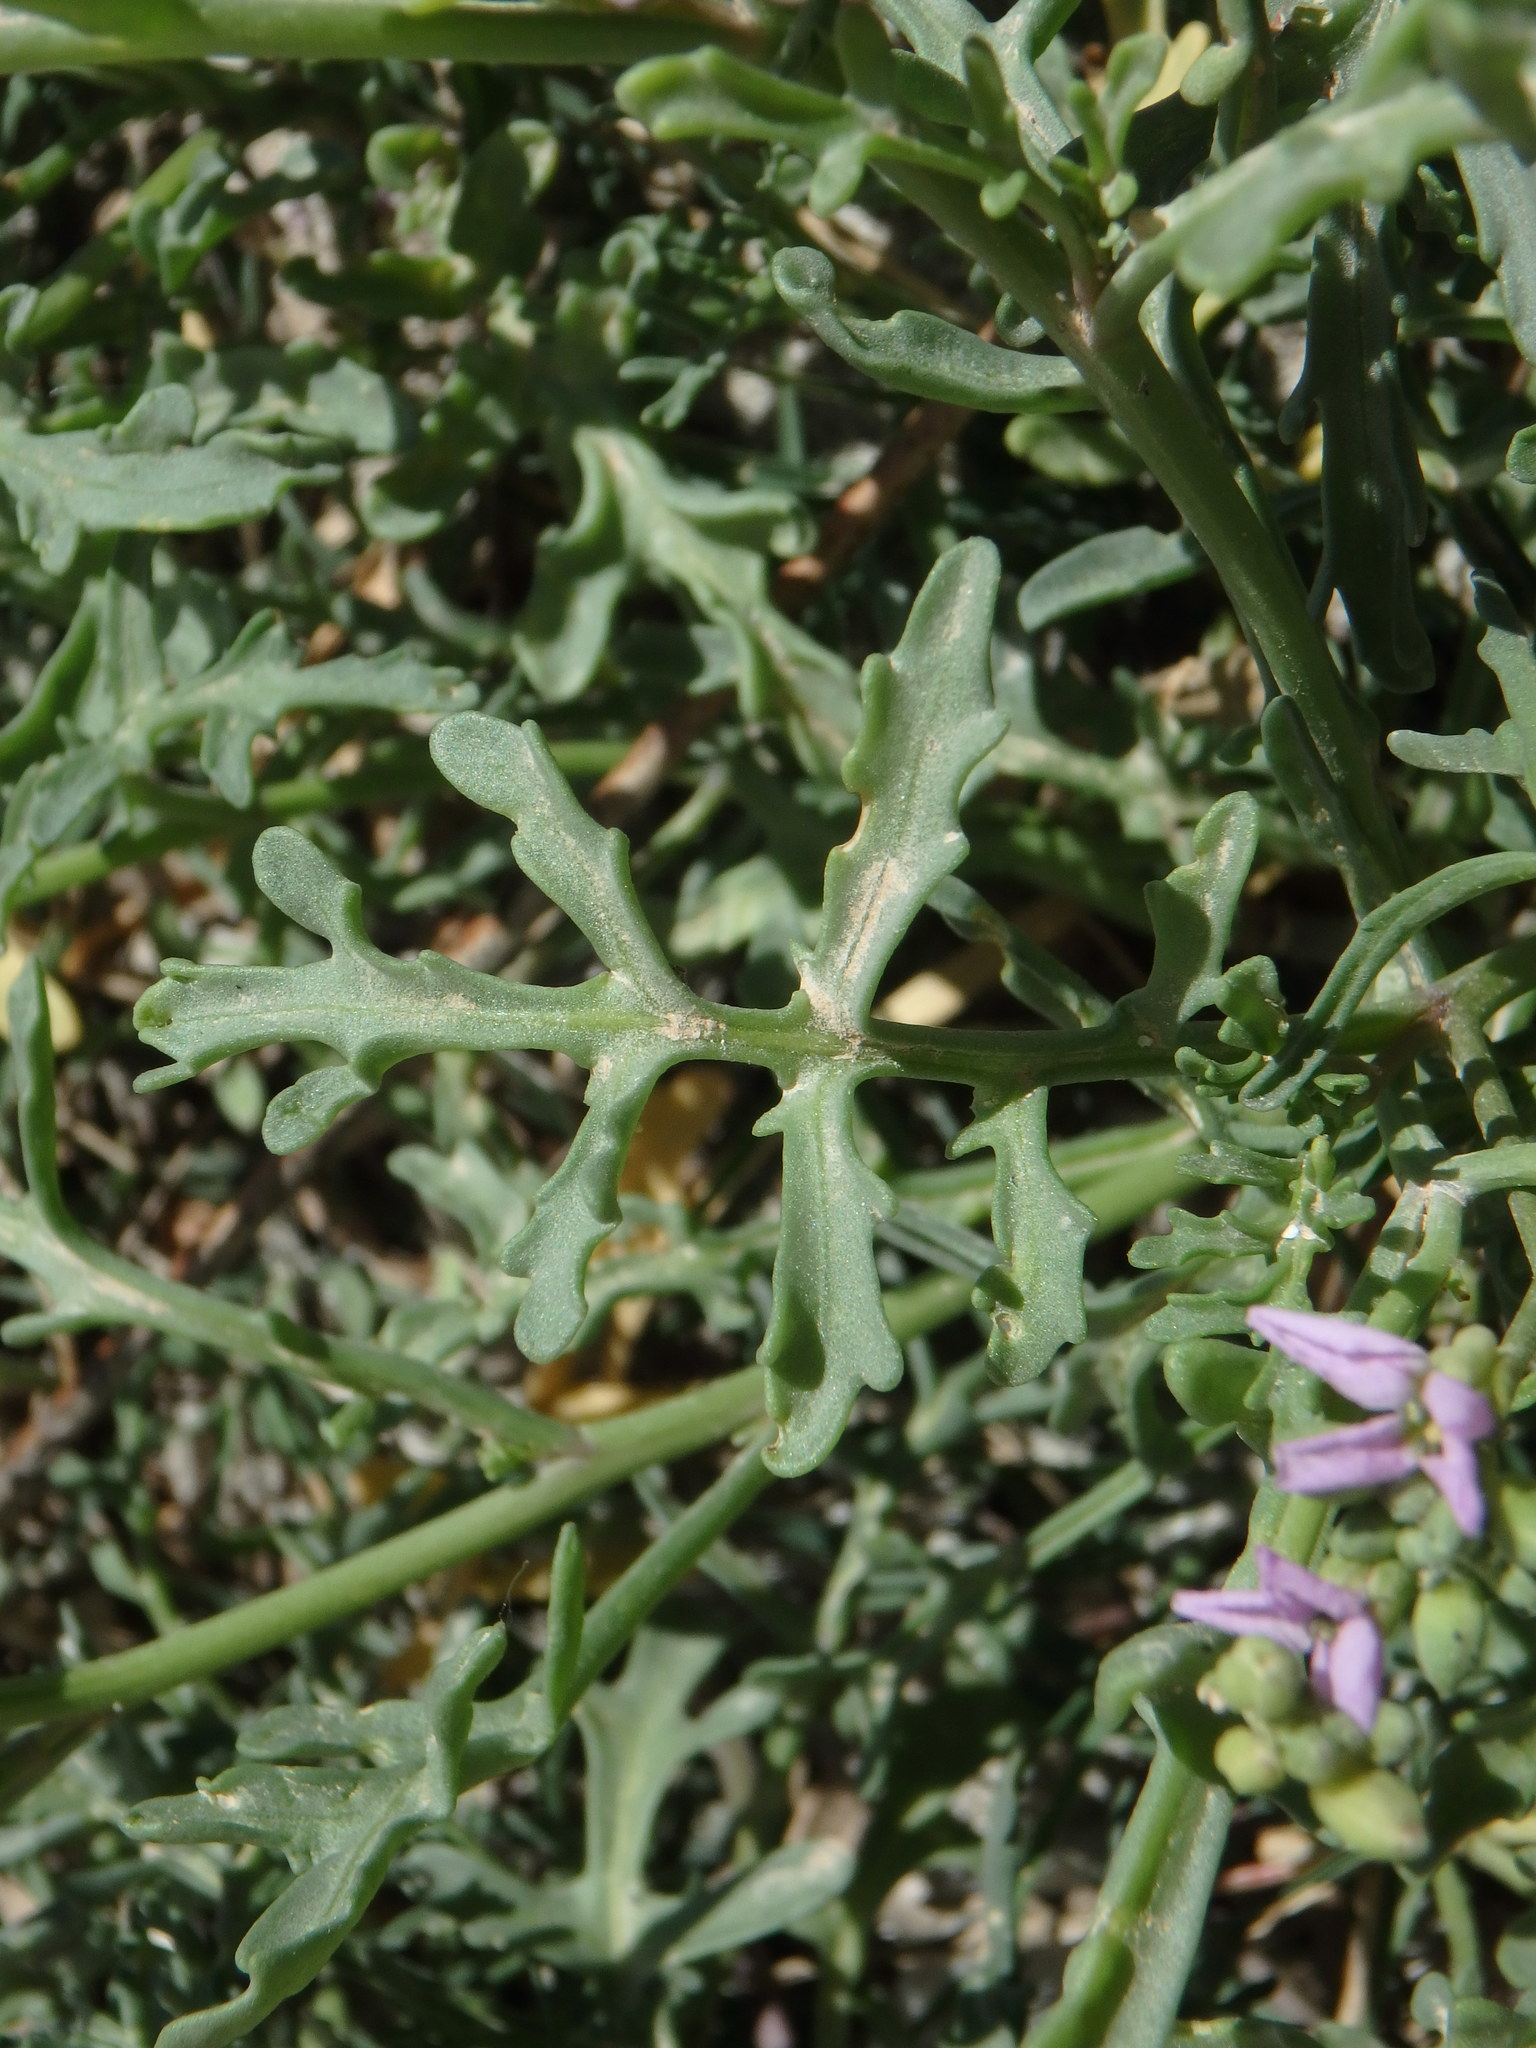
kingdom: Plantae
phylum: Tracheophyta
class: Magnoliopsida
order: Brassicales
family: Brassicaceae
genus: Cakile
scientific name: Cakile maritima
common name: Sea rocket
